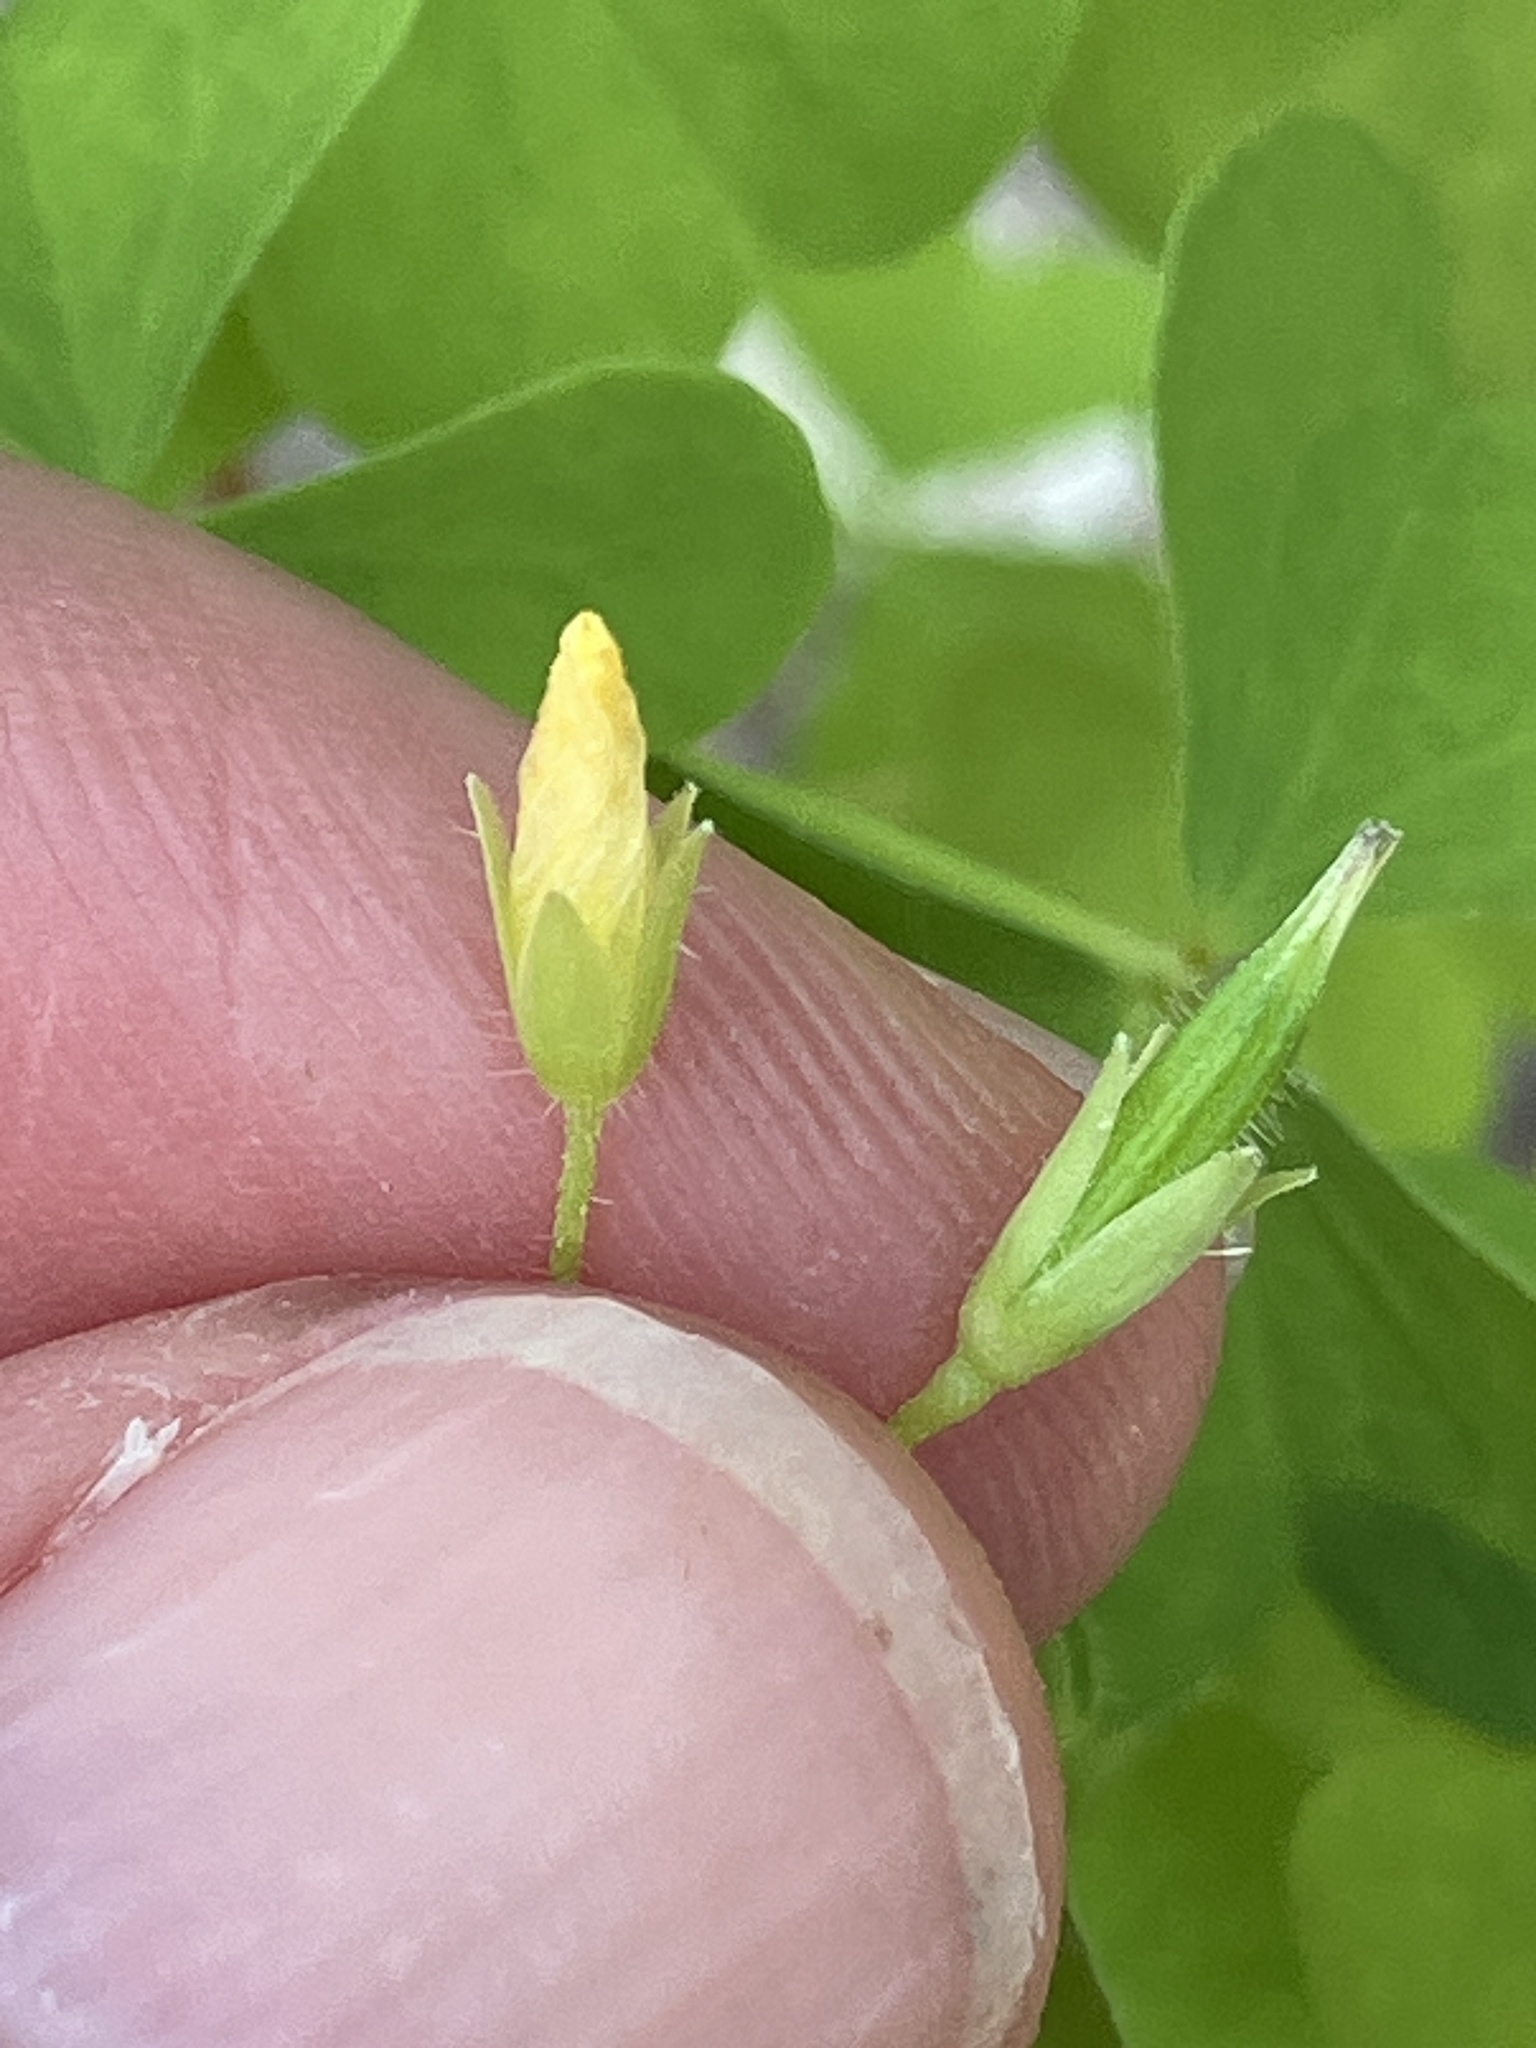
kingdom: Plantae
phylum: Tracheophyta
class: Magnoliopsida
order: Oxalidales
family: Oxalidaceae
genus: Oxalis
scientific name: Oxalis stricta
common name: Upright yellow-sorrel
